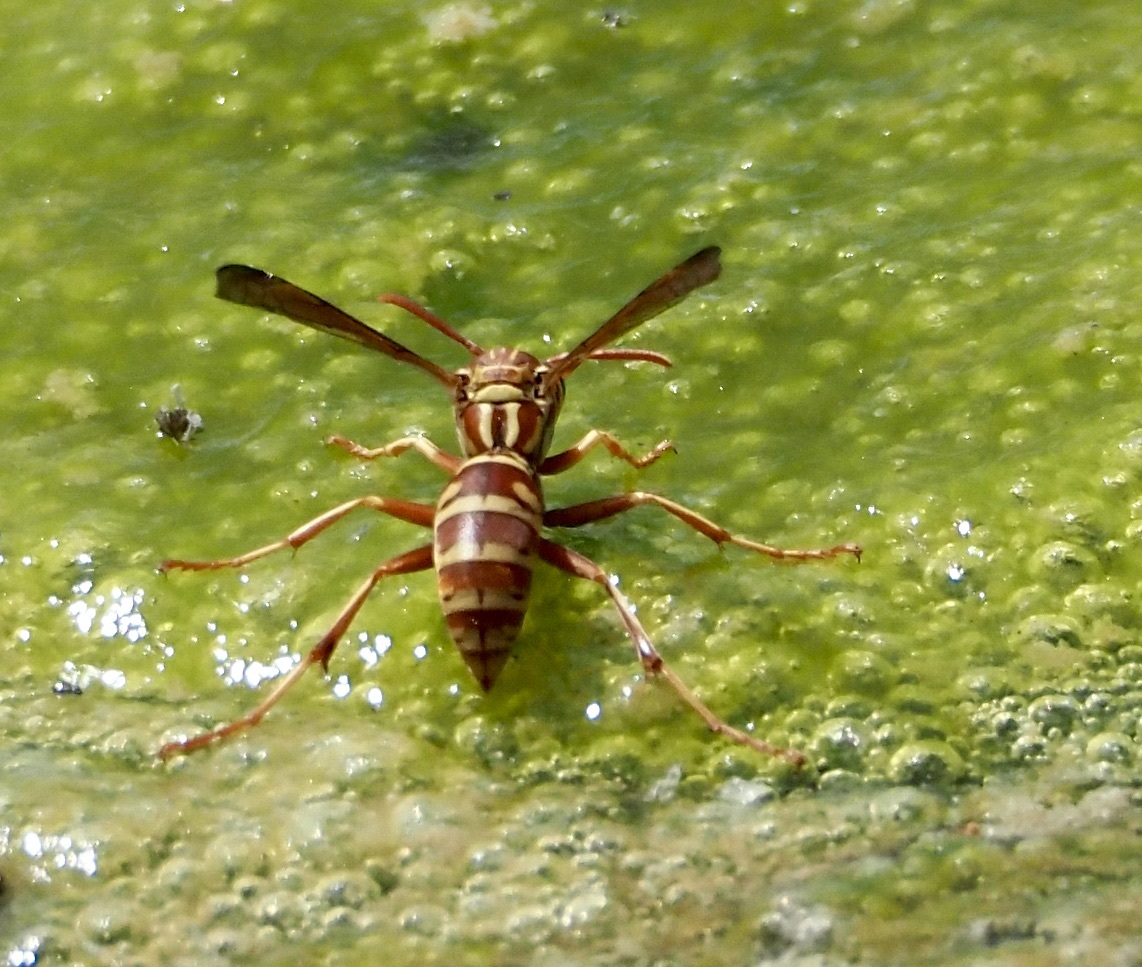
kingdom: Animalia
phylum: Arthropoda
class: Insecta
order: Hymenoptera
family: Eumenidae
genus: Polistes
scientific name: Polistes apachus
